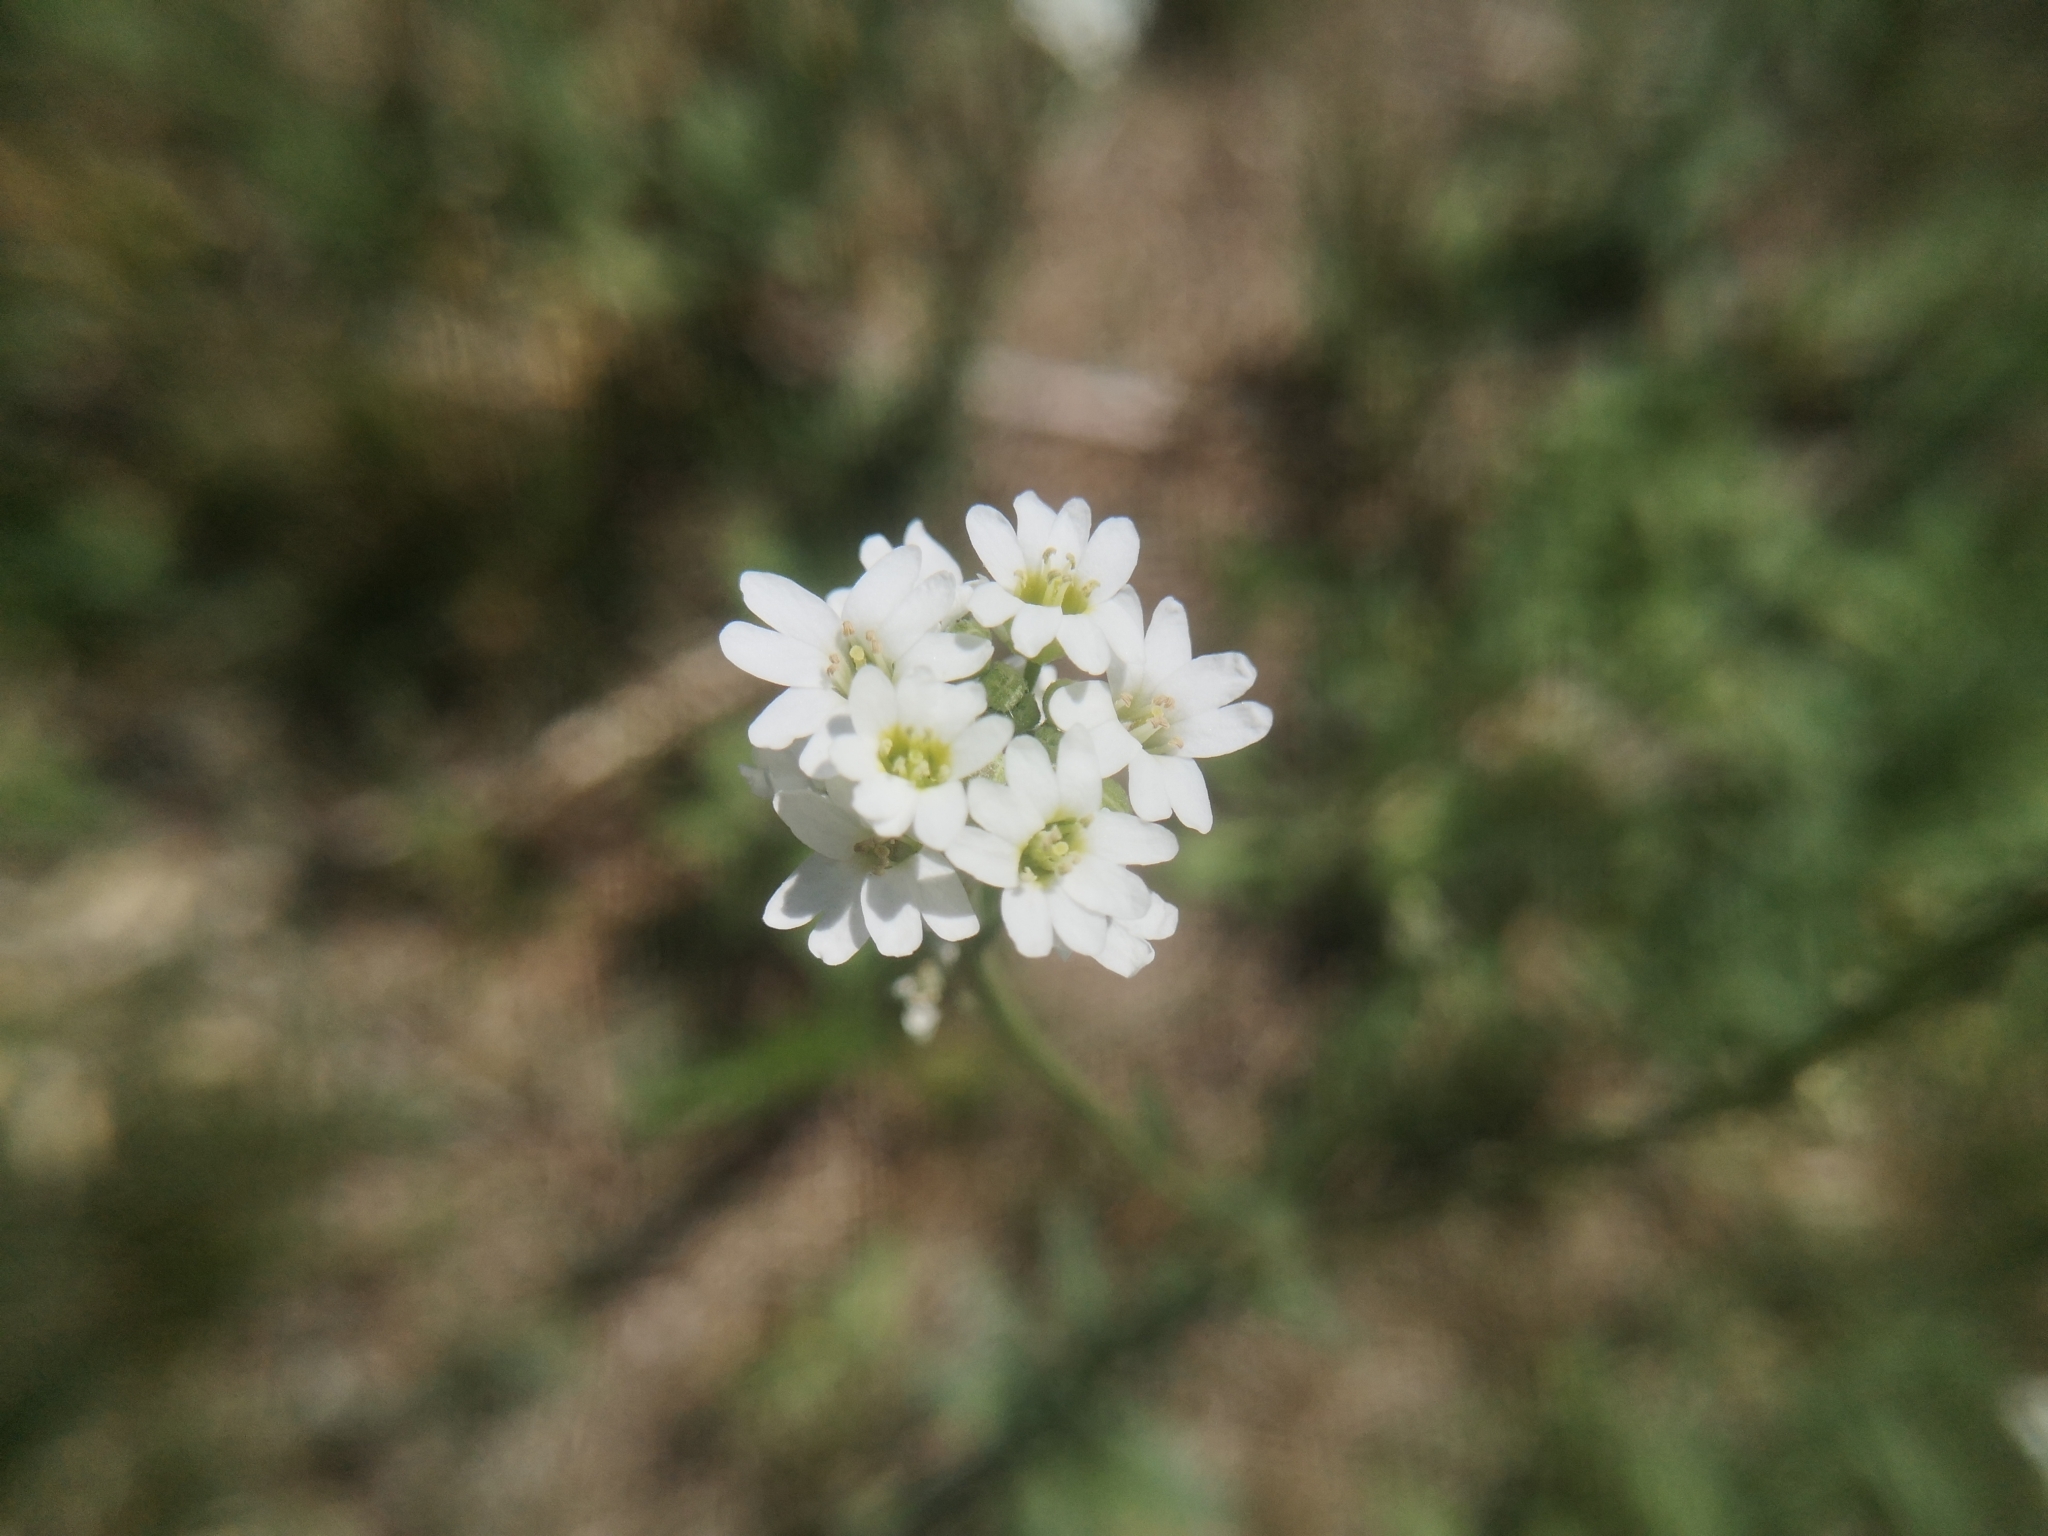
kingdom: Plantae
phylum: Tracheophyta
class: Magnoliopsida
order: Brassicales
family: Brassicaceae
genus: Berteroa
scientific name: Berteroa incana
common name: Hoary alison
